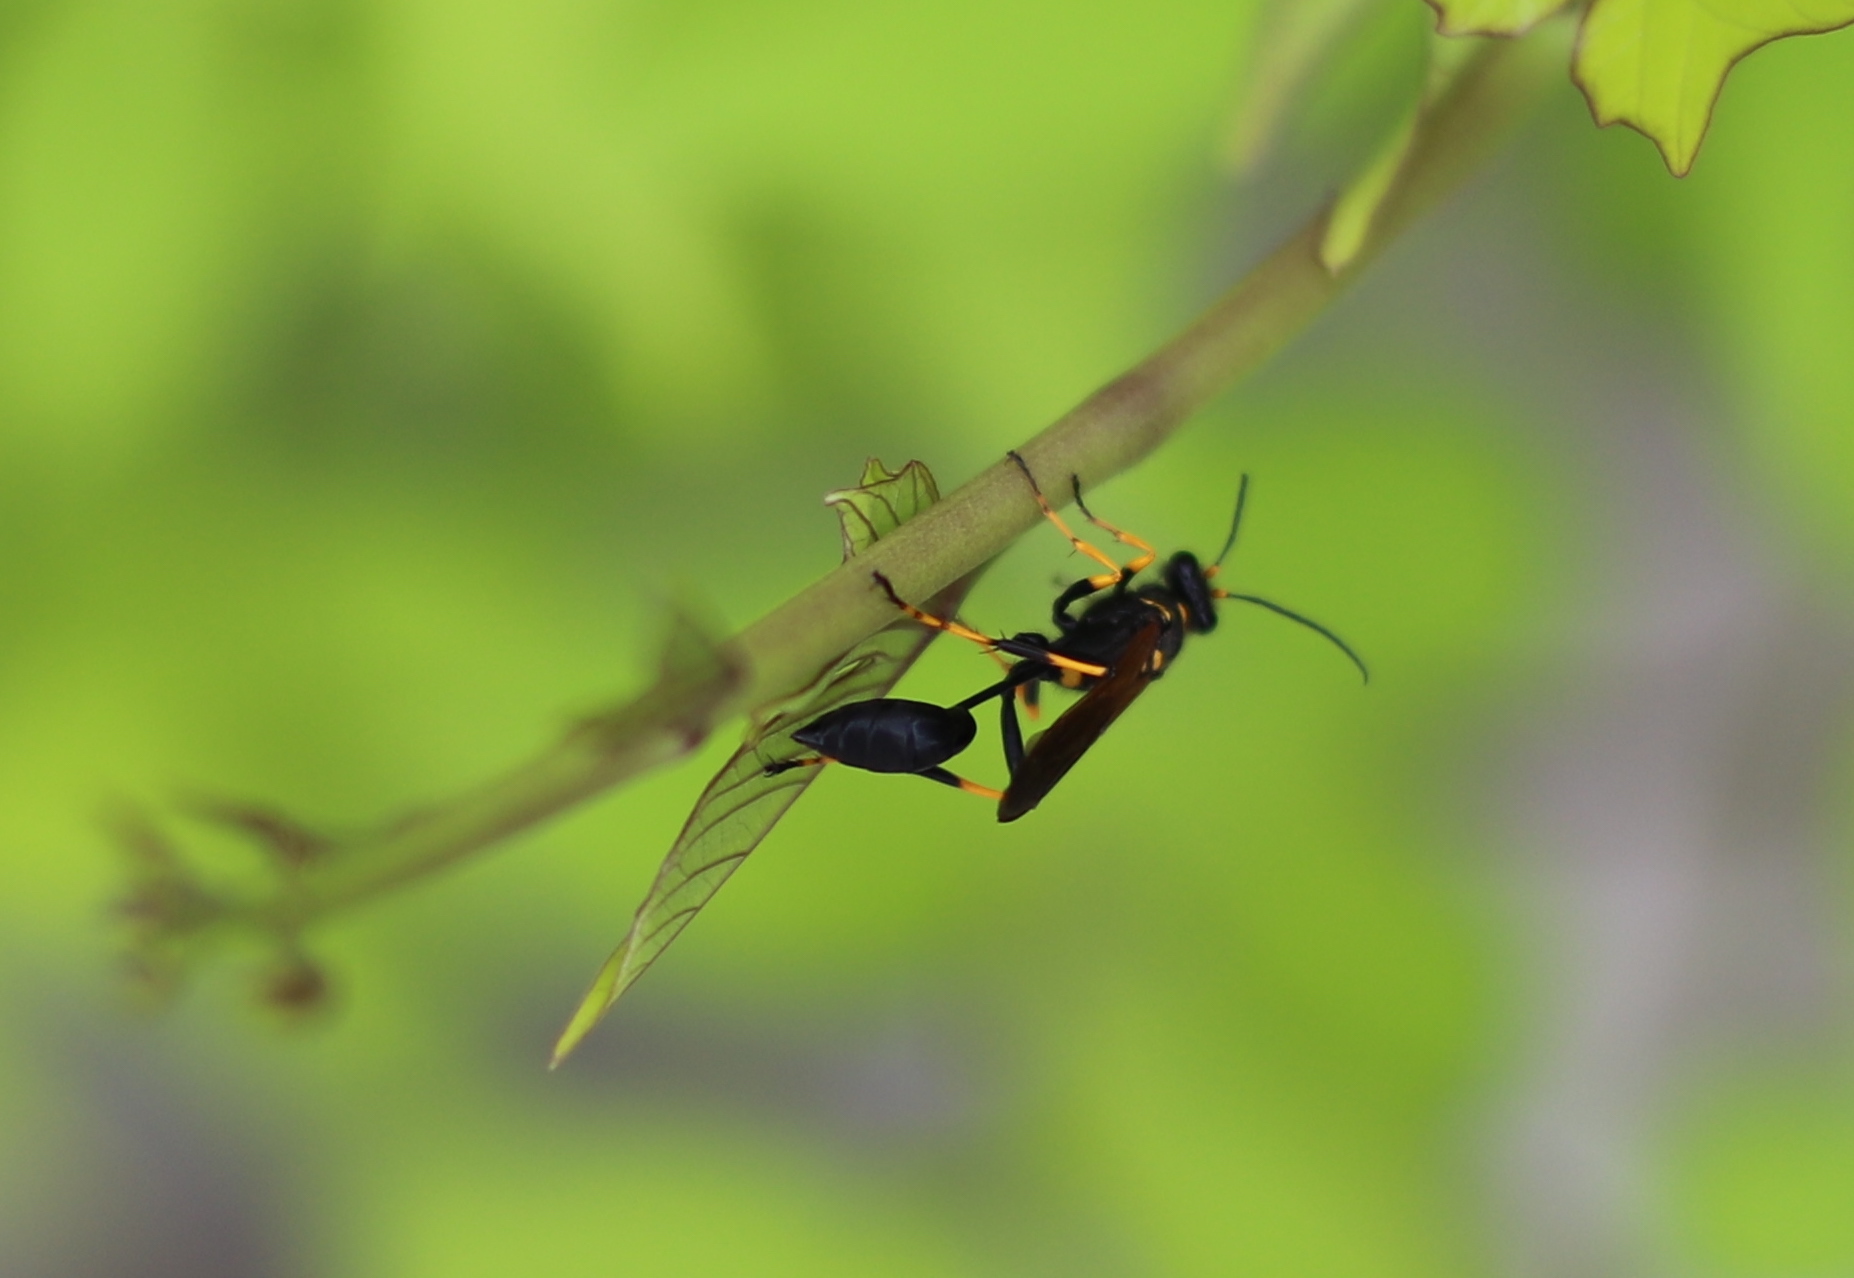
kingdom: Animalia
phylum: Arthropoda
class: Insecta
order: Hymenoptera
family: Sphecidae
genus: Sceliphron
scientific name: Sceliphron caementarium
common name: Mud dauber
